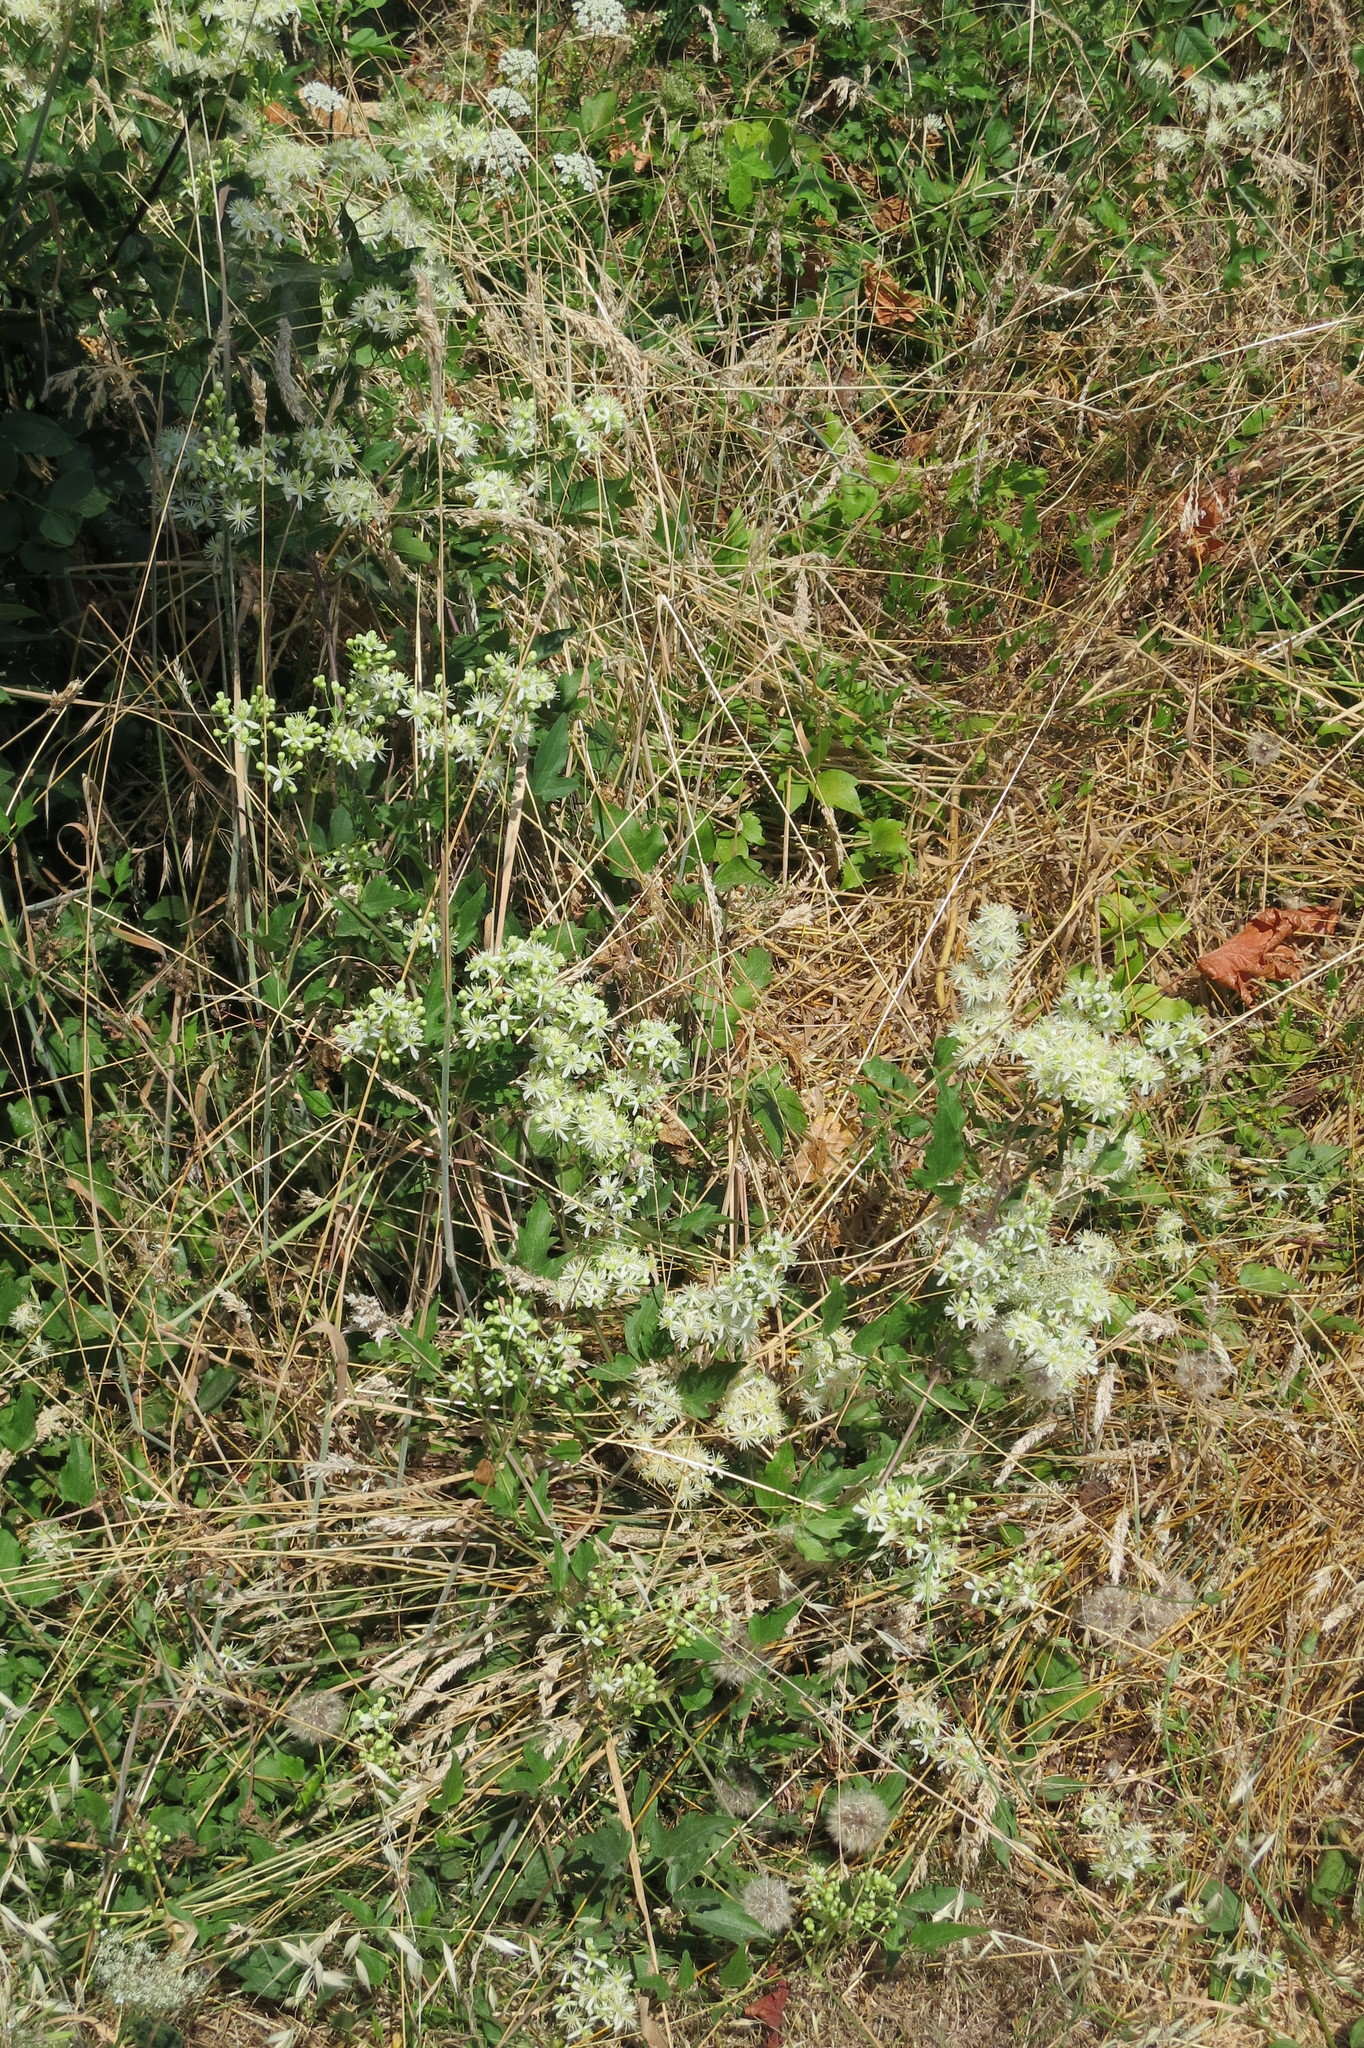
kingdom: Plantae
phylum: Tracheophyta
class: Magnoliopsida
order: Ranunculales
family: Ranunculaceae
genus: Clematis
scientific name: Clematis ligusticifolia
